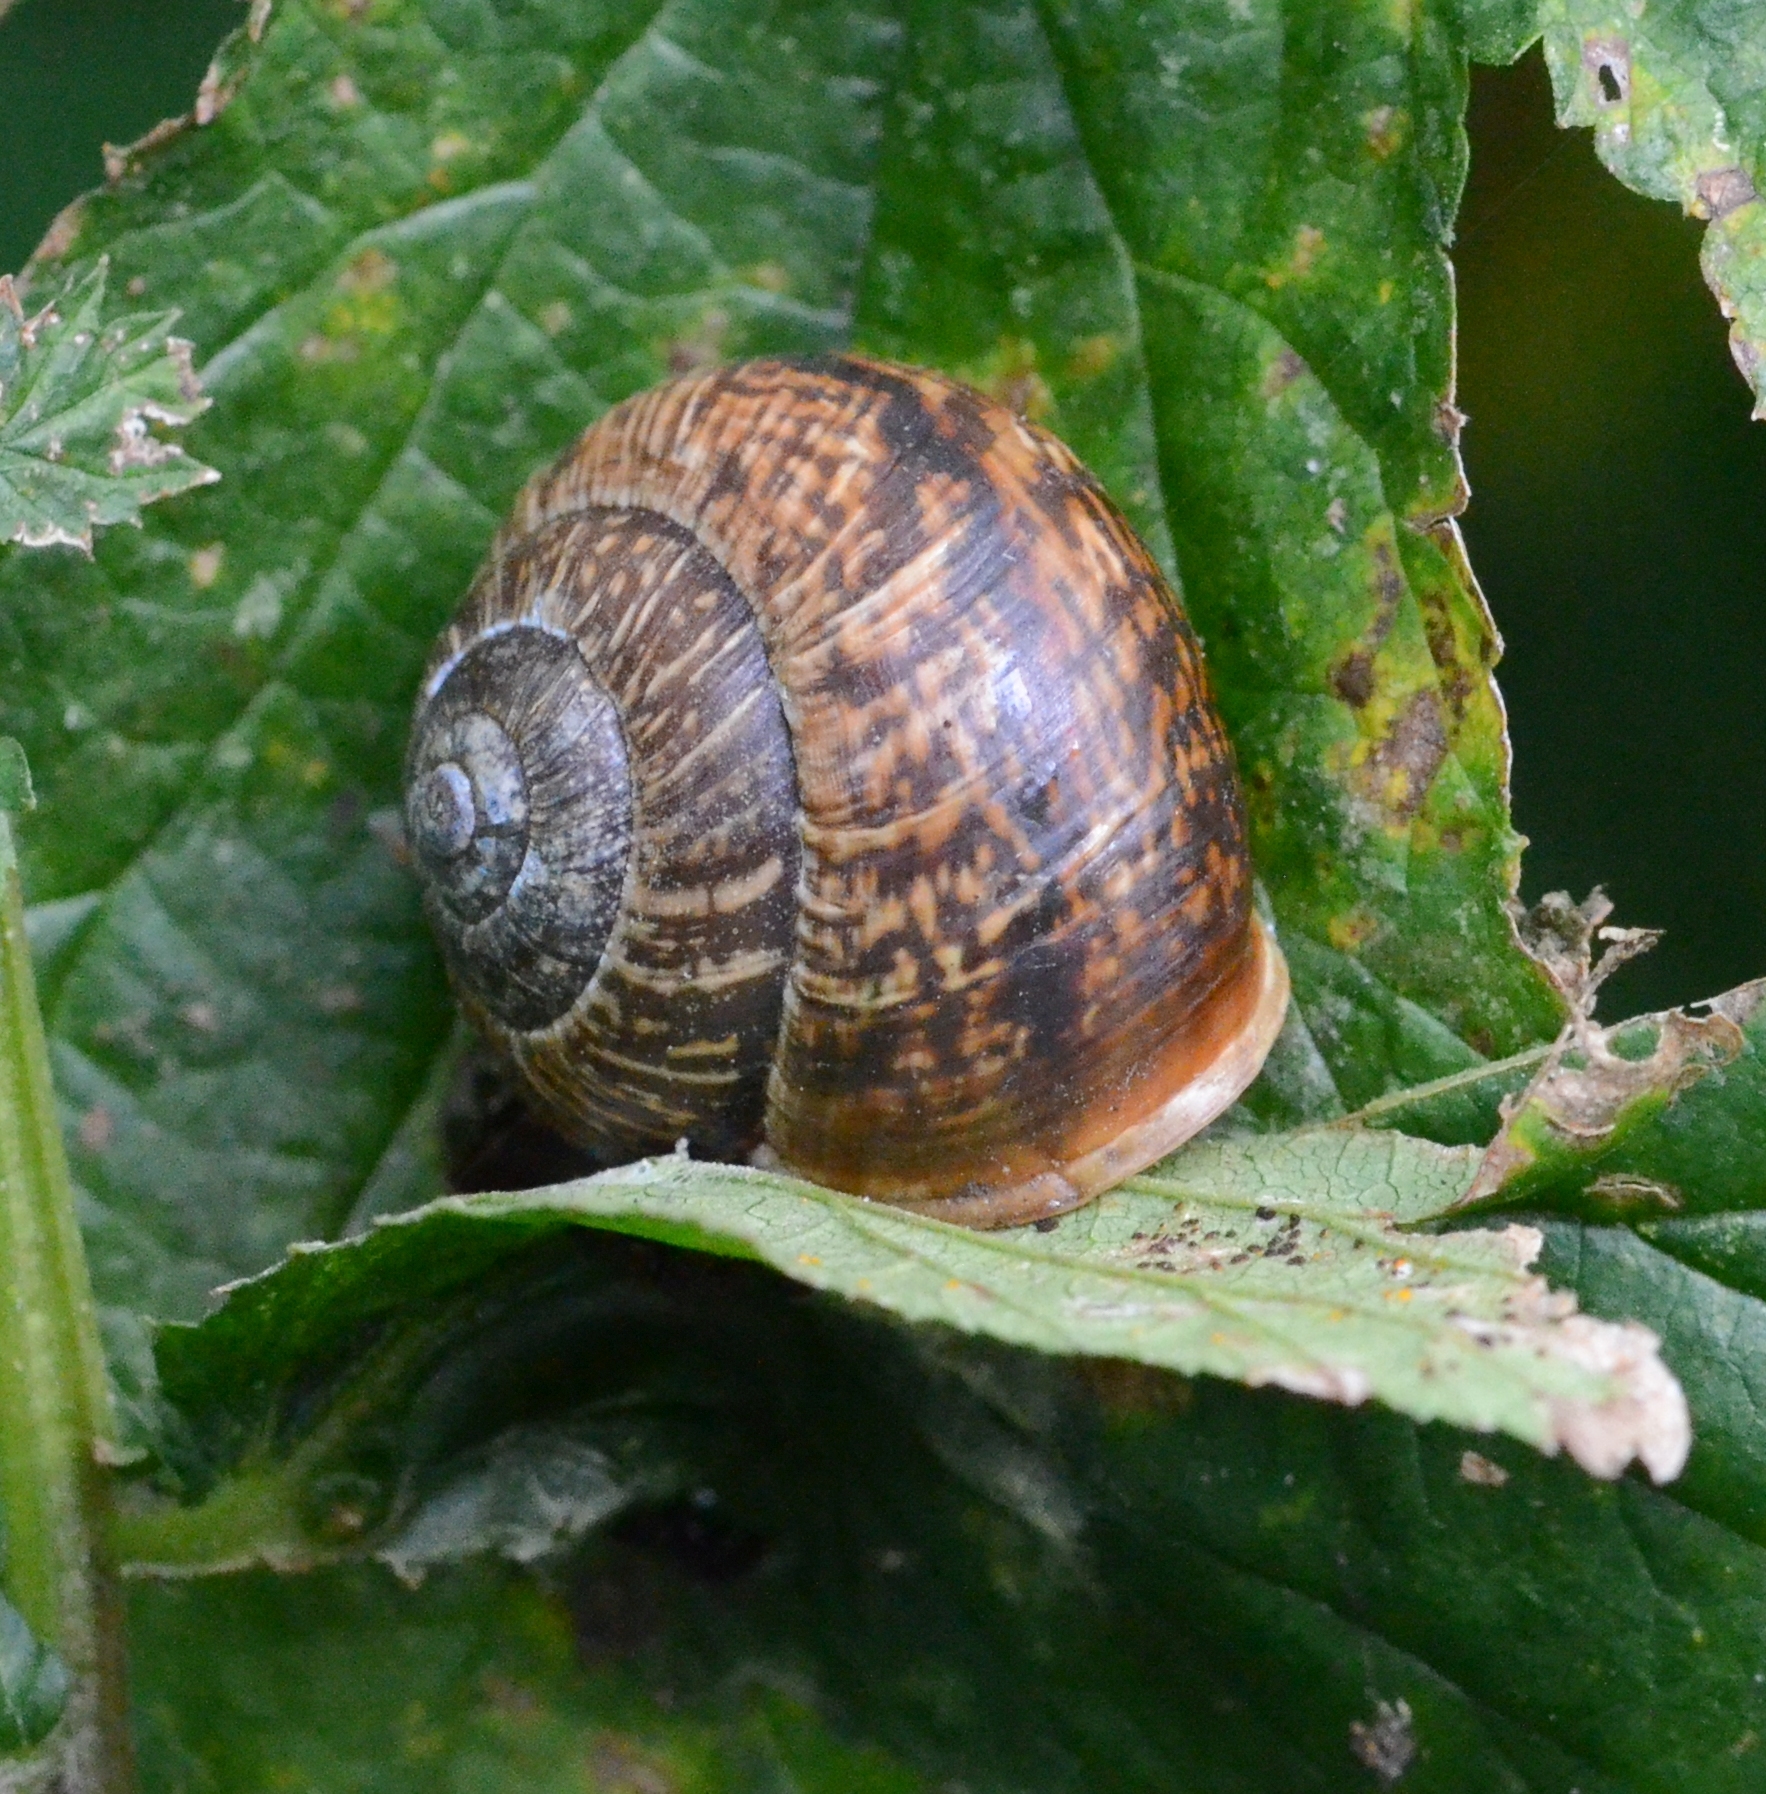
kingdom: Animalia
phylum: Mollusca
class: Gastropoda
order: Stylommatophora
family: Helicidae
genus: Arianta
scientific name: Arianta arbustorum
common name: Copse snail
